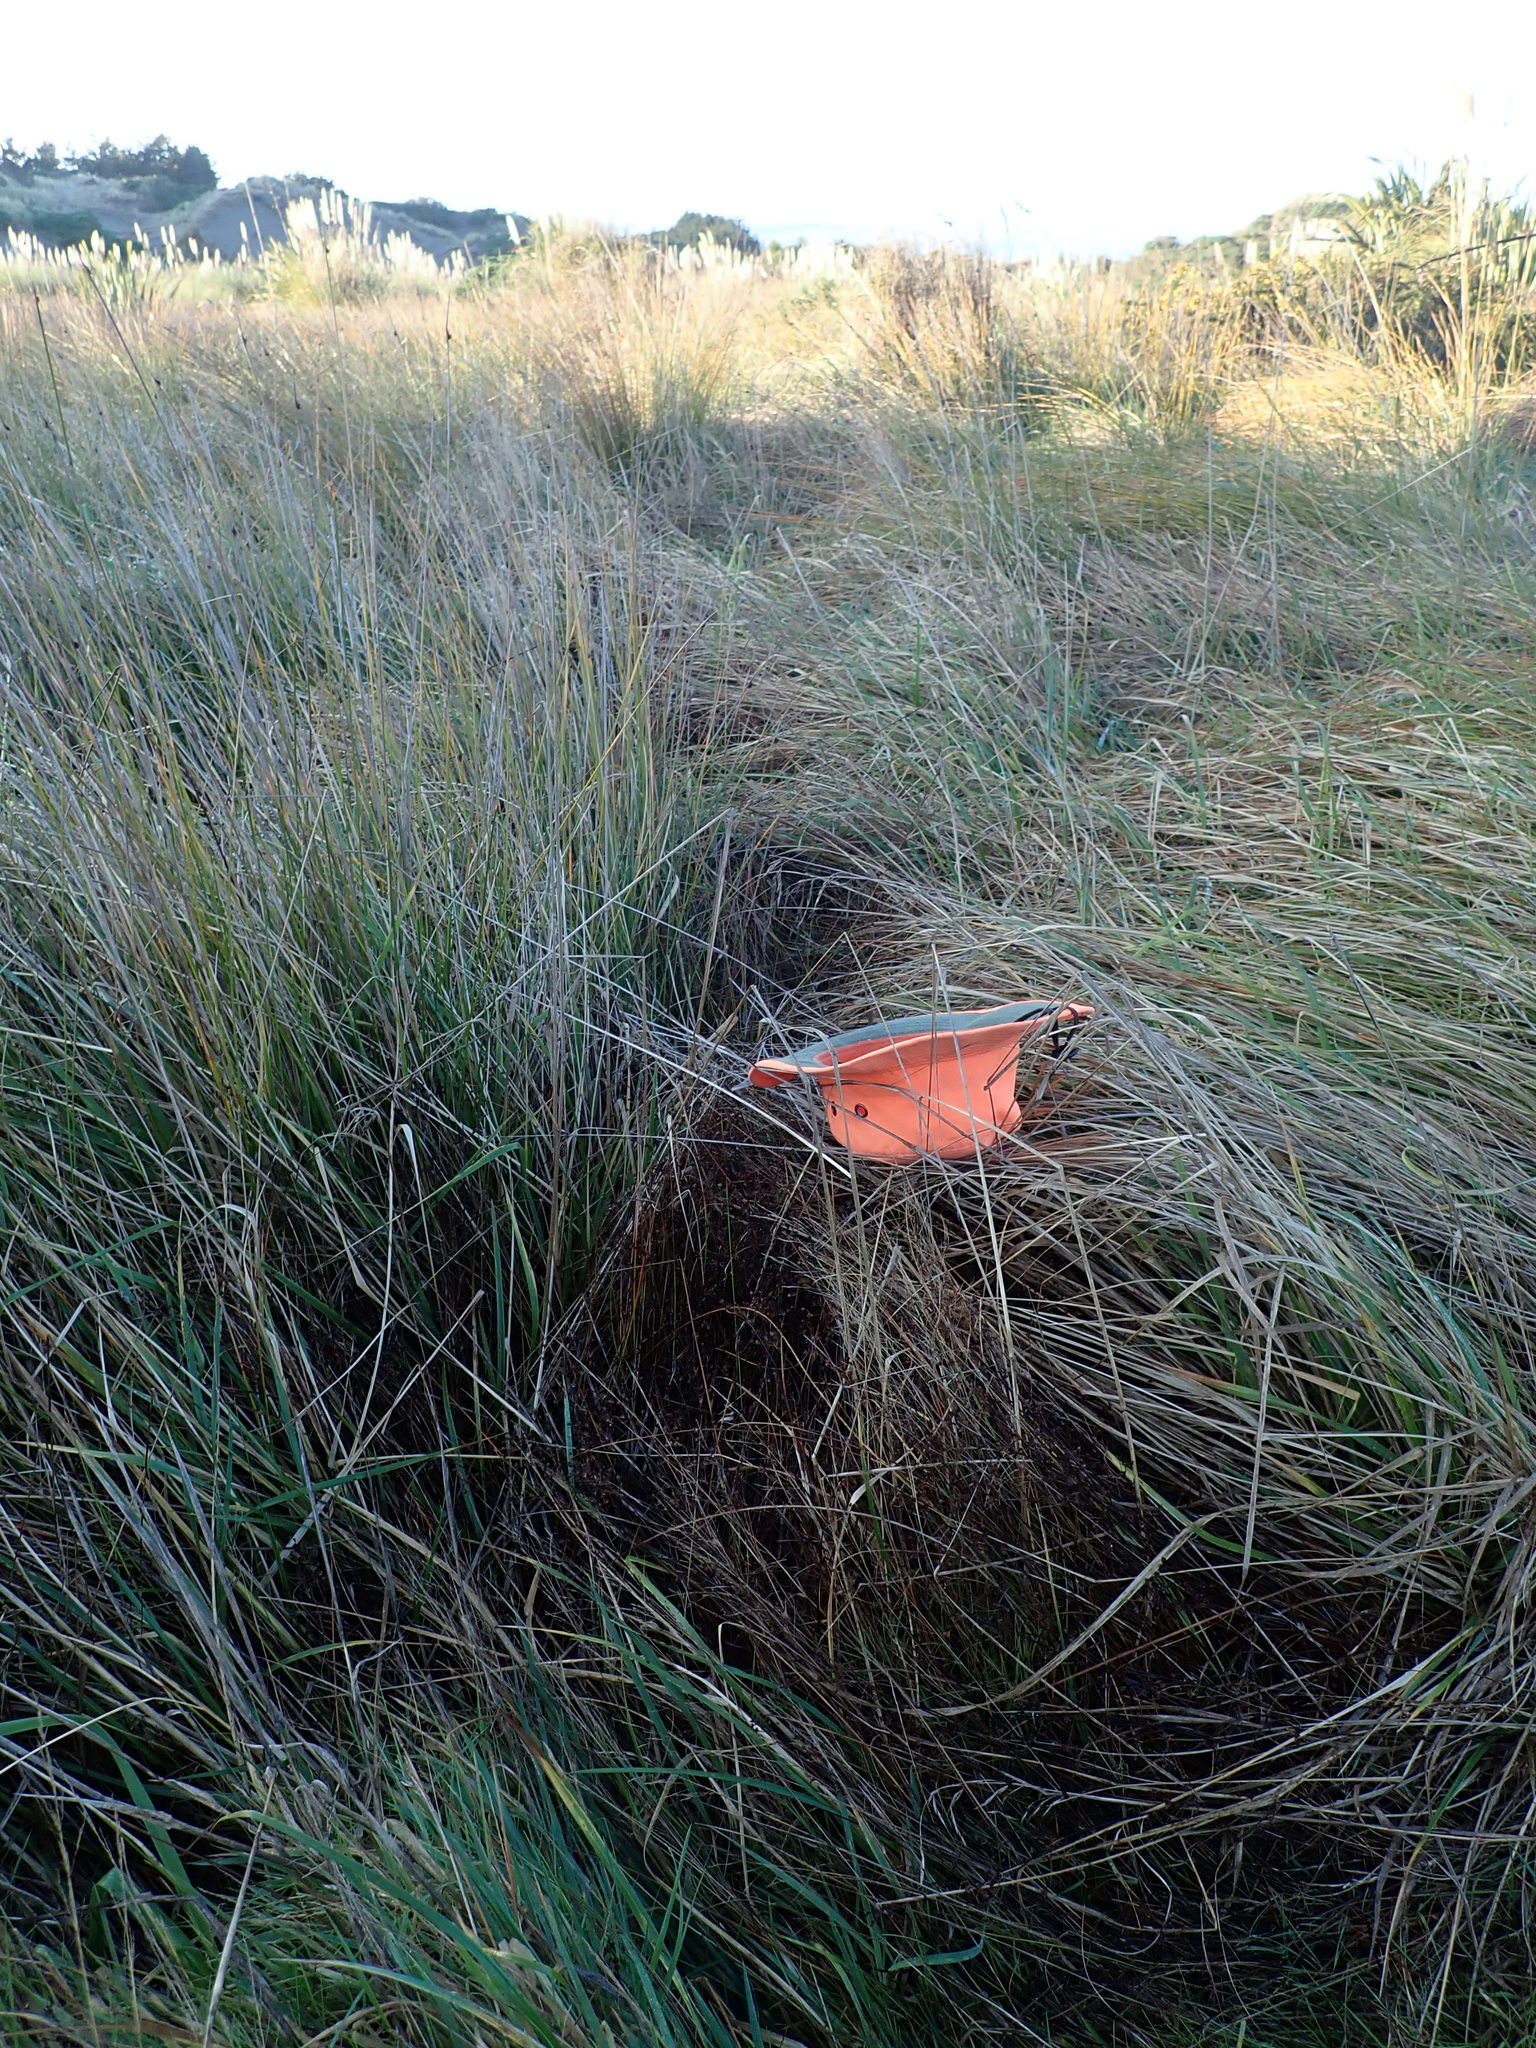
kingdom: Plantae
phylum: Tracheophyta
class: Liliopsida
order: Poales
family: Juncaceae
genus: Juncus
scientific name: Juncus articulatus
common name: Jointed rush
